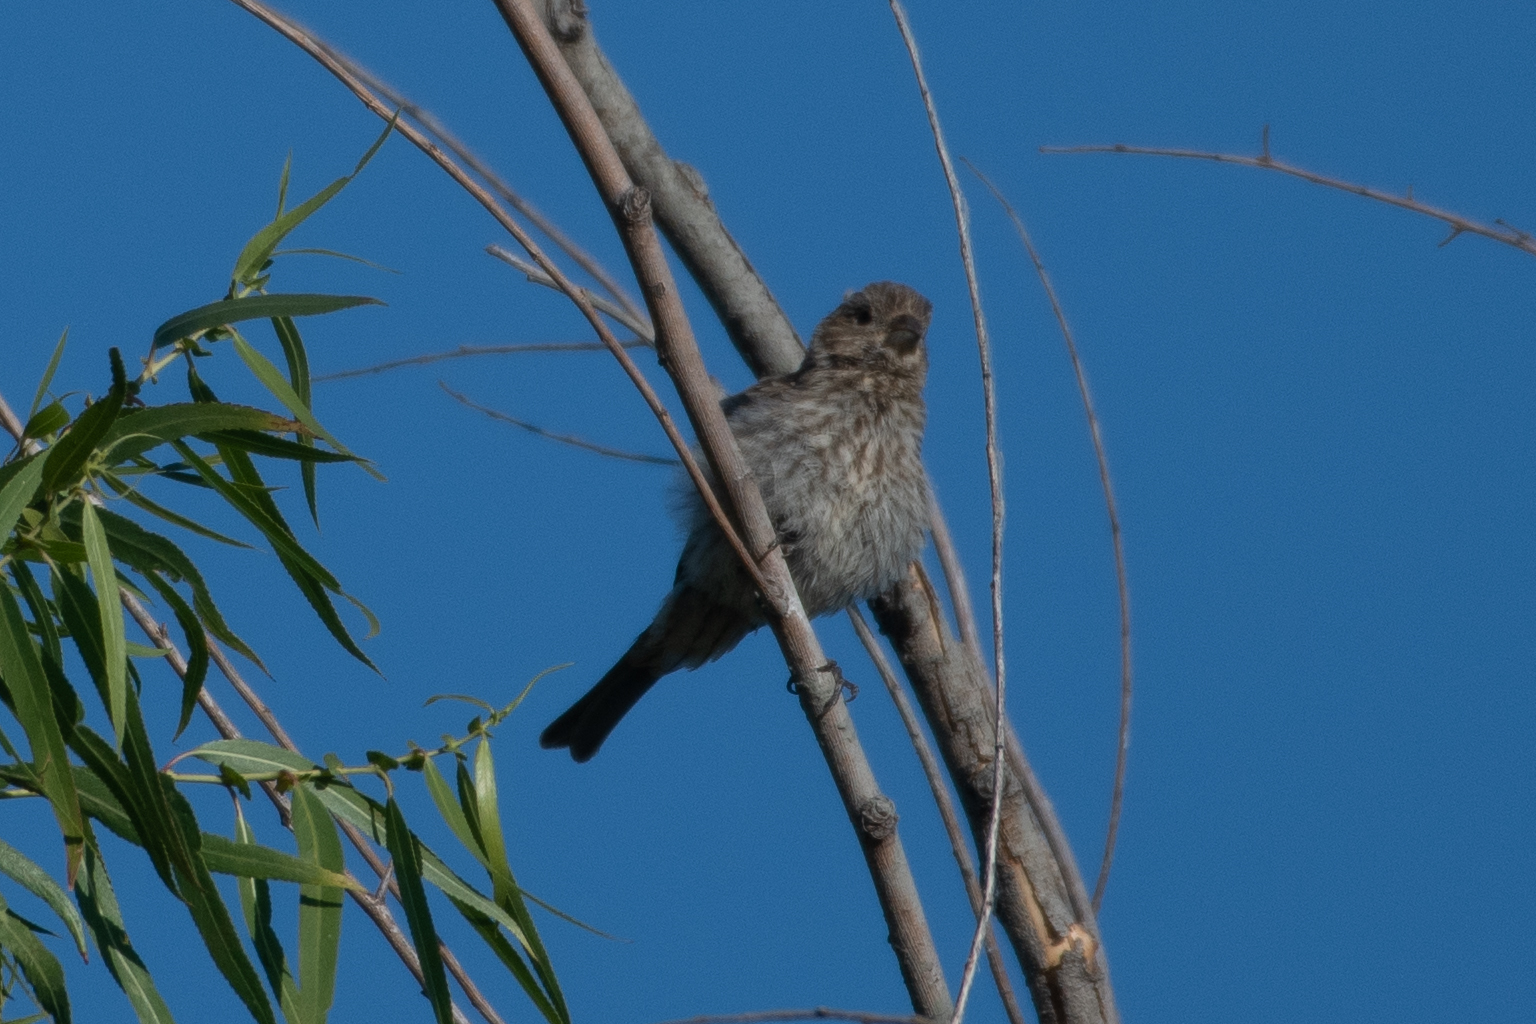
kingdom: Animalia
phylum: Chordata
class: Aves
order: Passeriformes
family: Fringillidae
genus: Haemorhous
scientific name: Haemorhous mexicanus
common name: House finch
